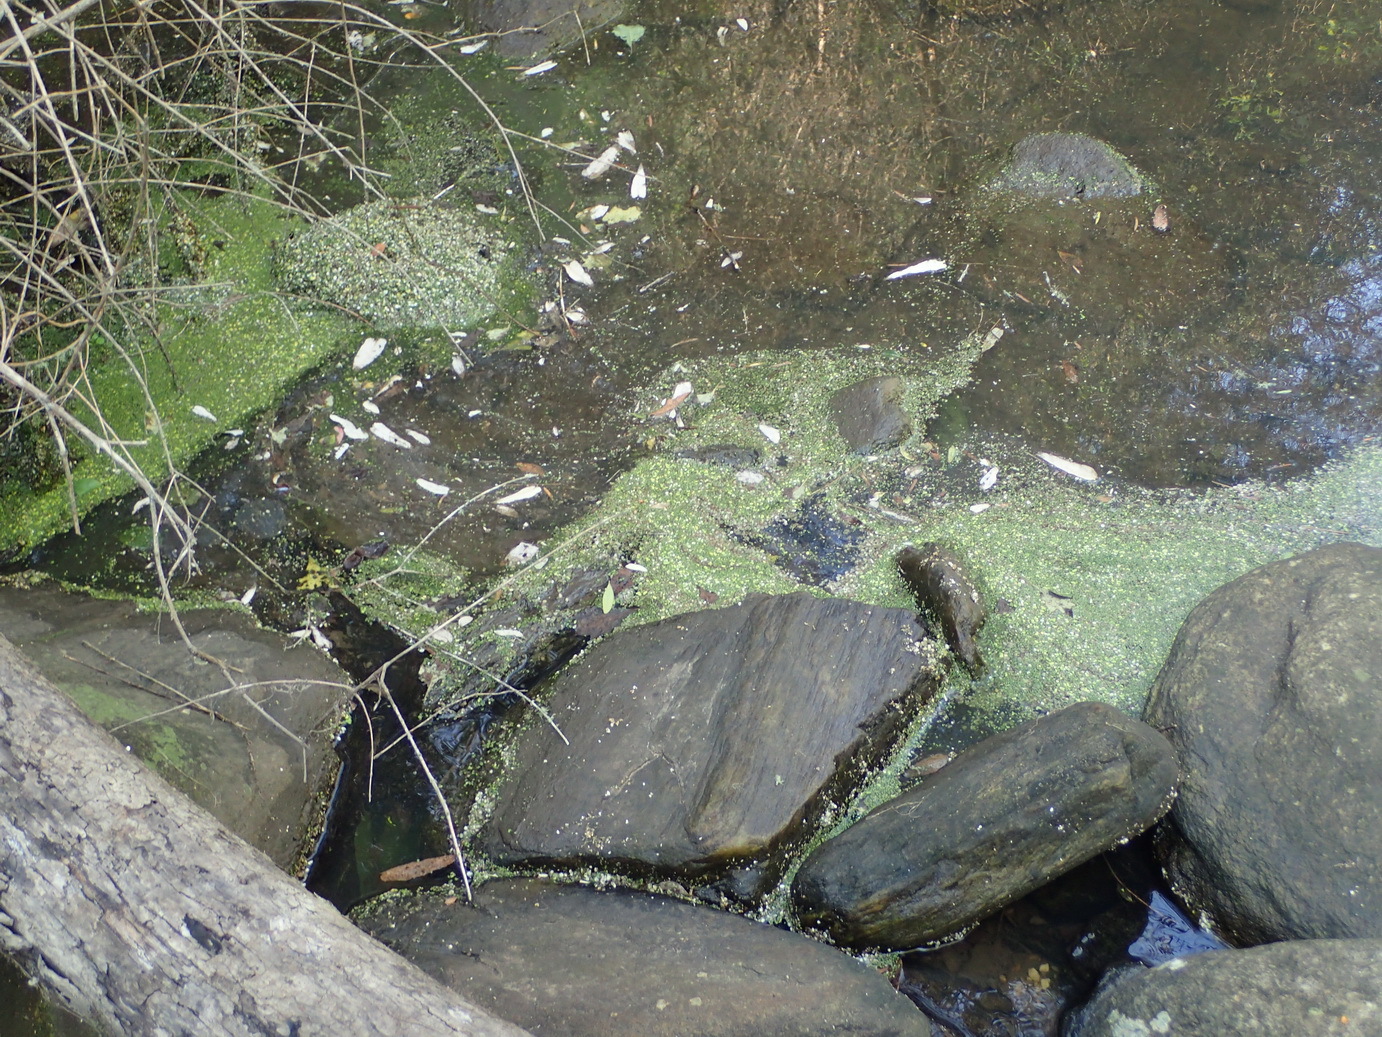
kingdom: Plantae
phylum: Tracheophyta
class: Liliopsida
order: Alismatales
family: Araceae
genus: Lemna
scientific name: Lemna gibba
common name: Fat duckweed
